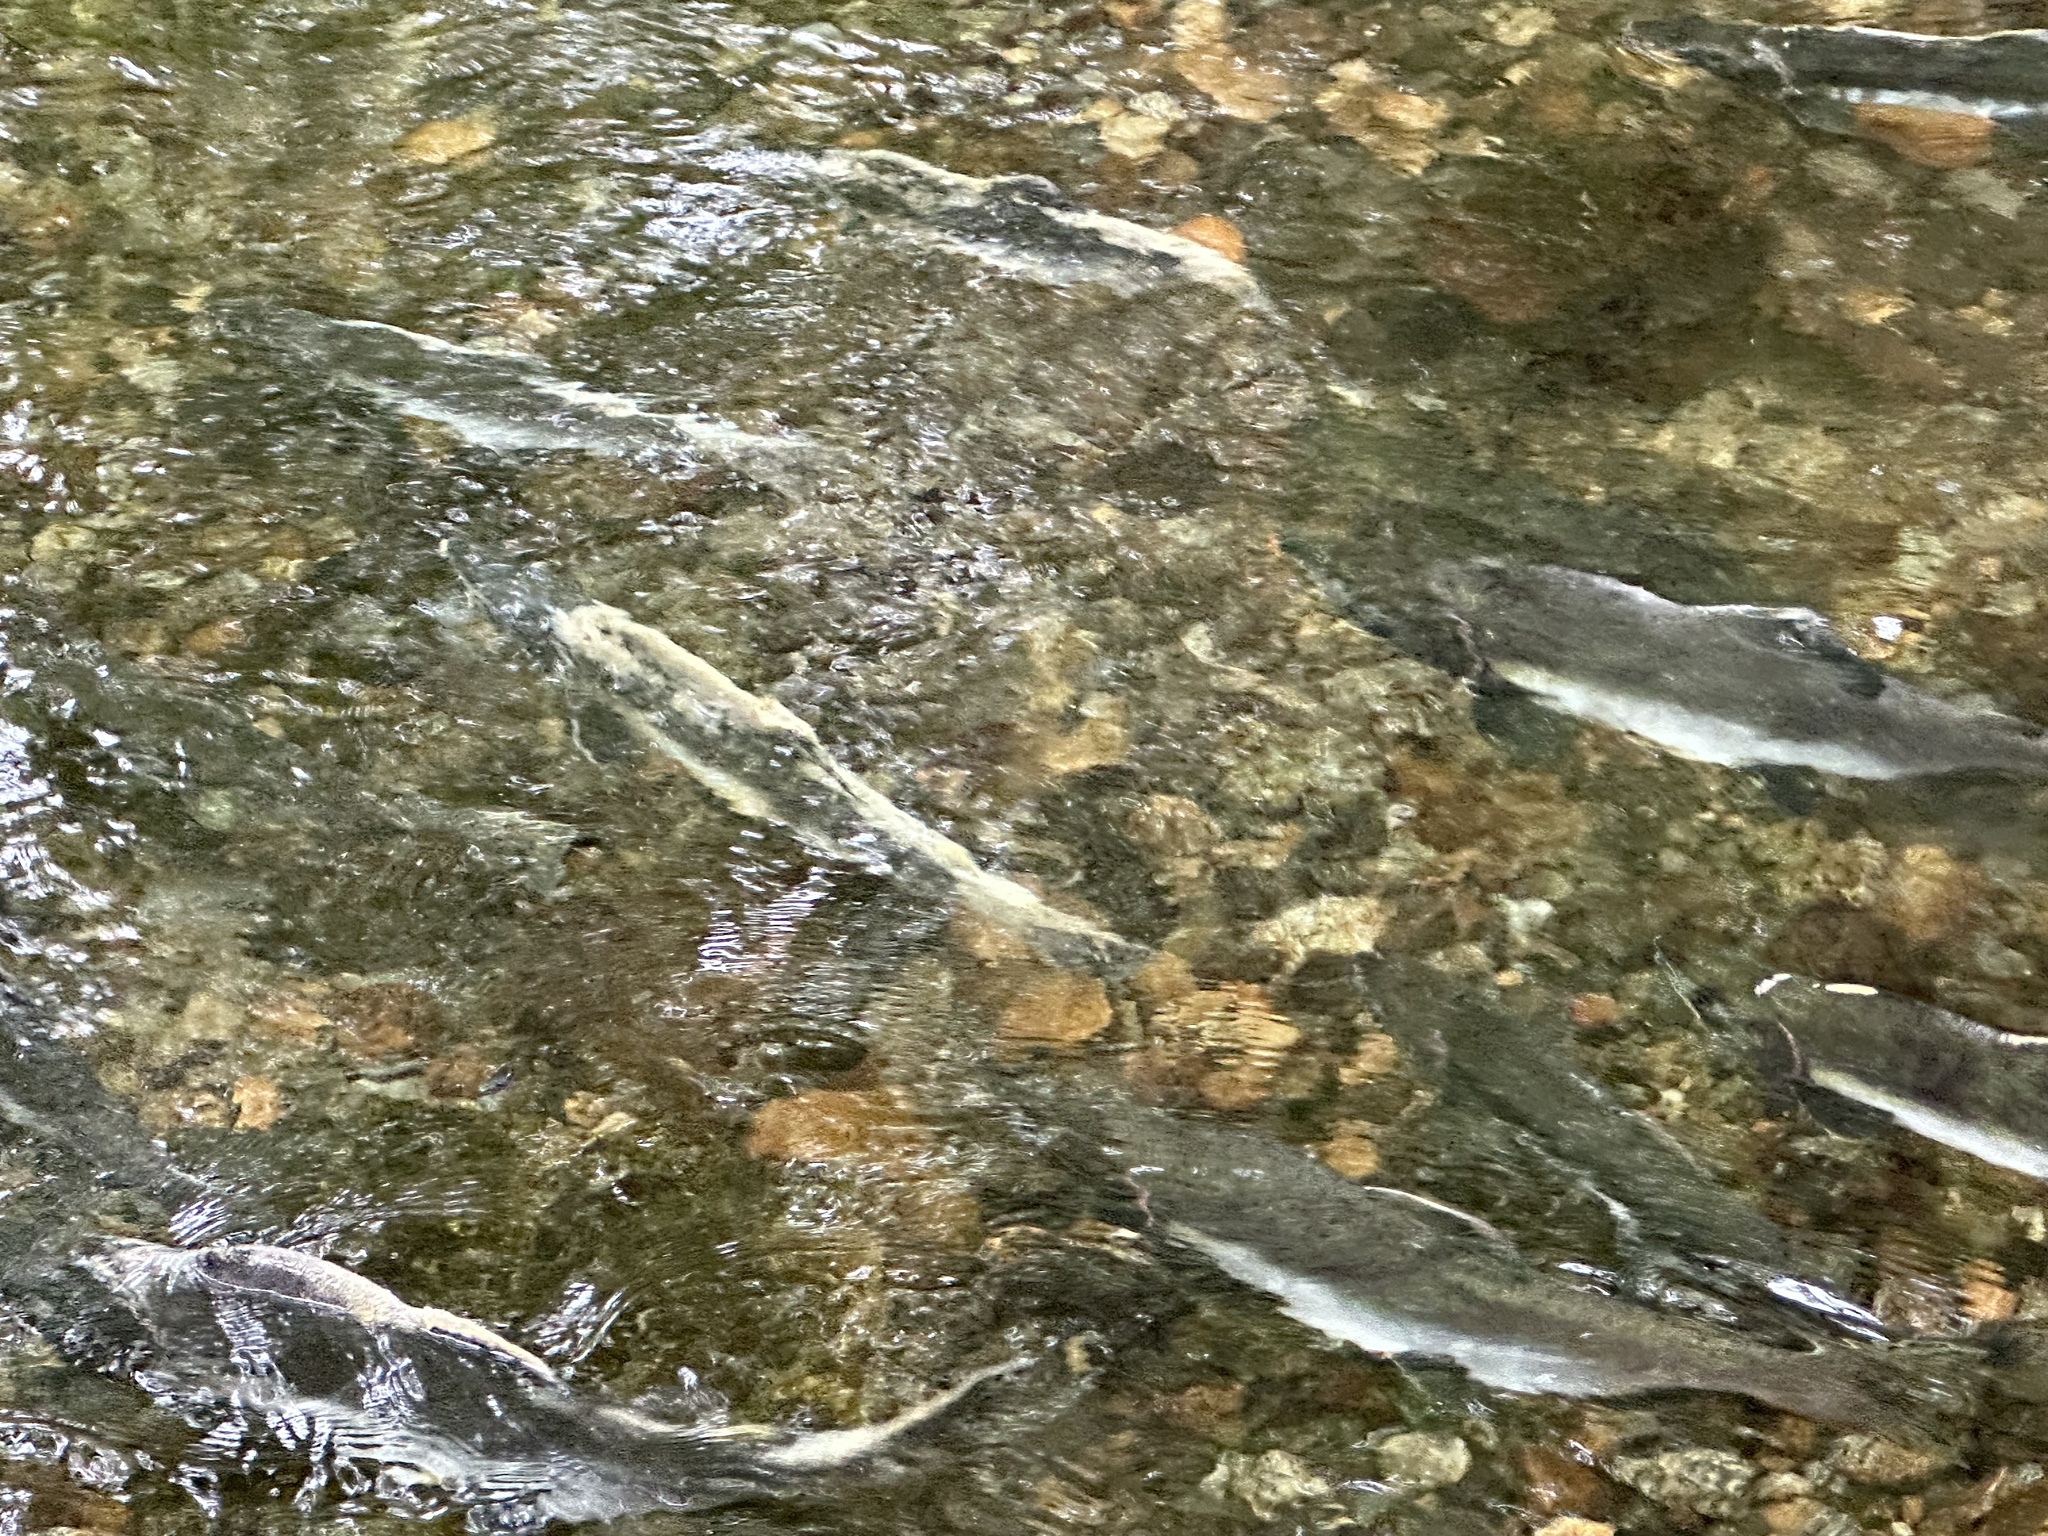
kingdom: Animalia
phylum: Chordata
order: Salmoniformes
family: Salmonidae
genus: Oncorhynchus
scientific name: Oncorhynchus gorbuscha
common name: Humpback salmon
